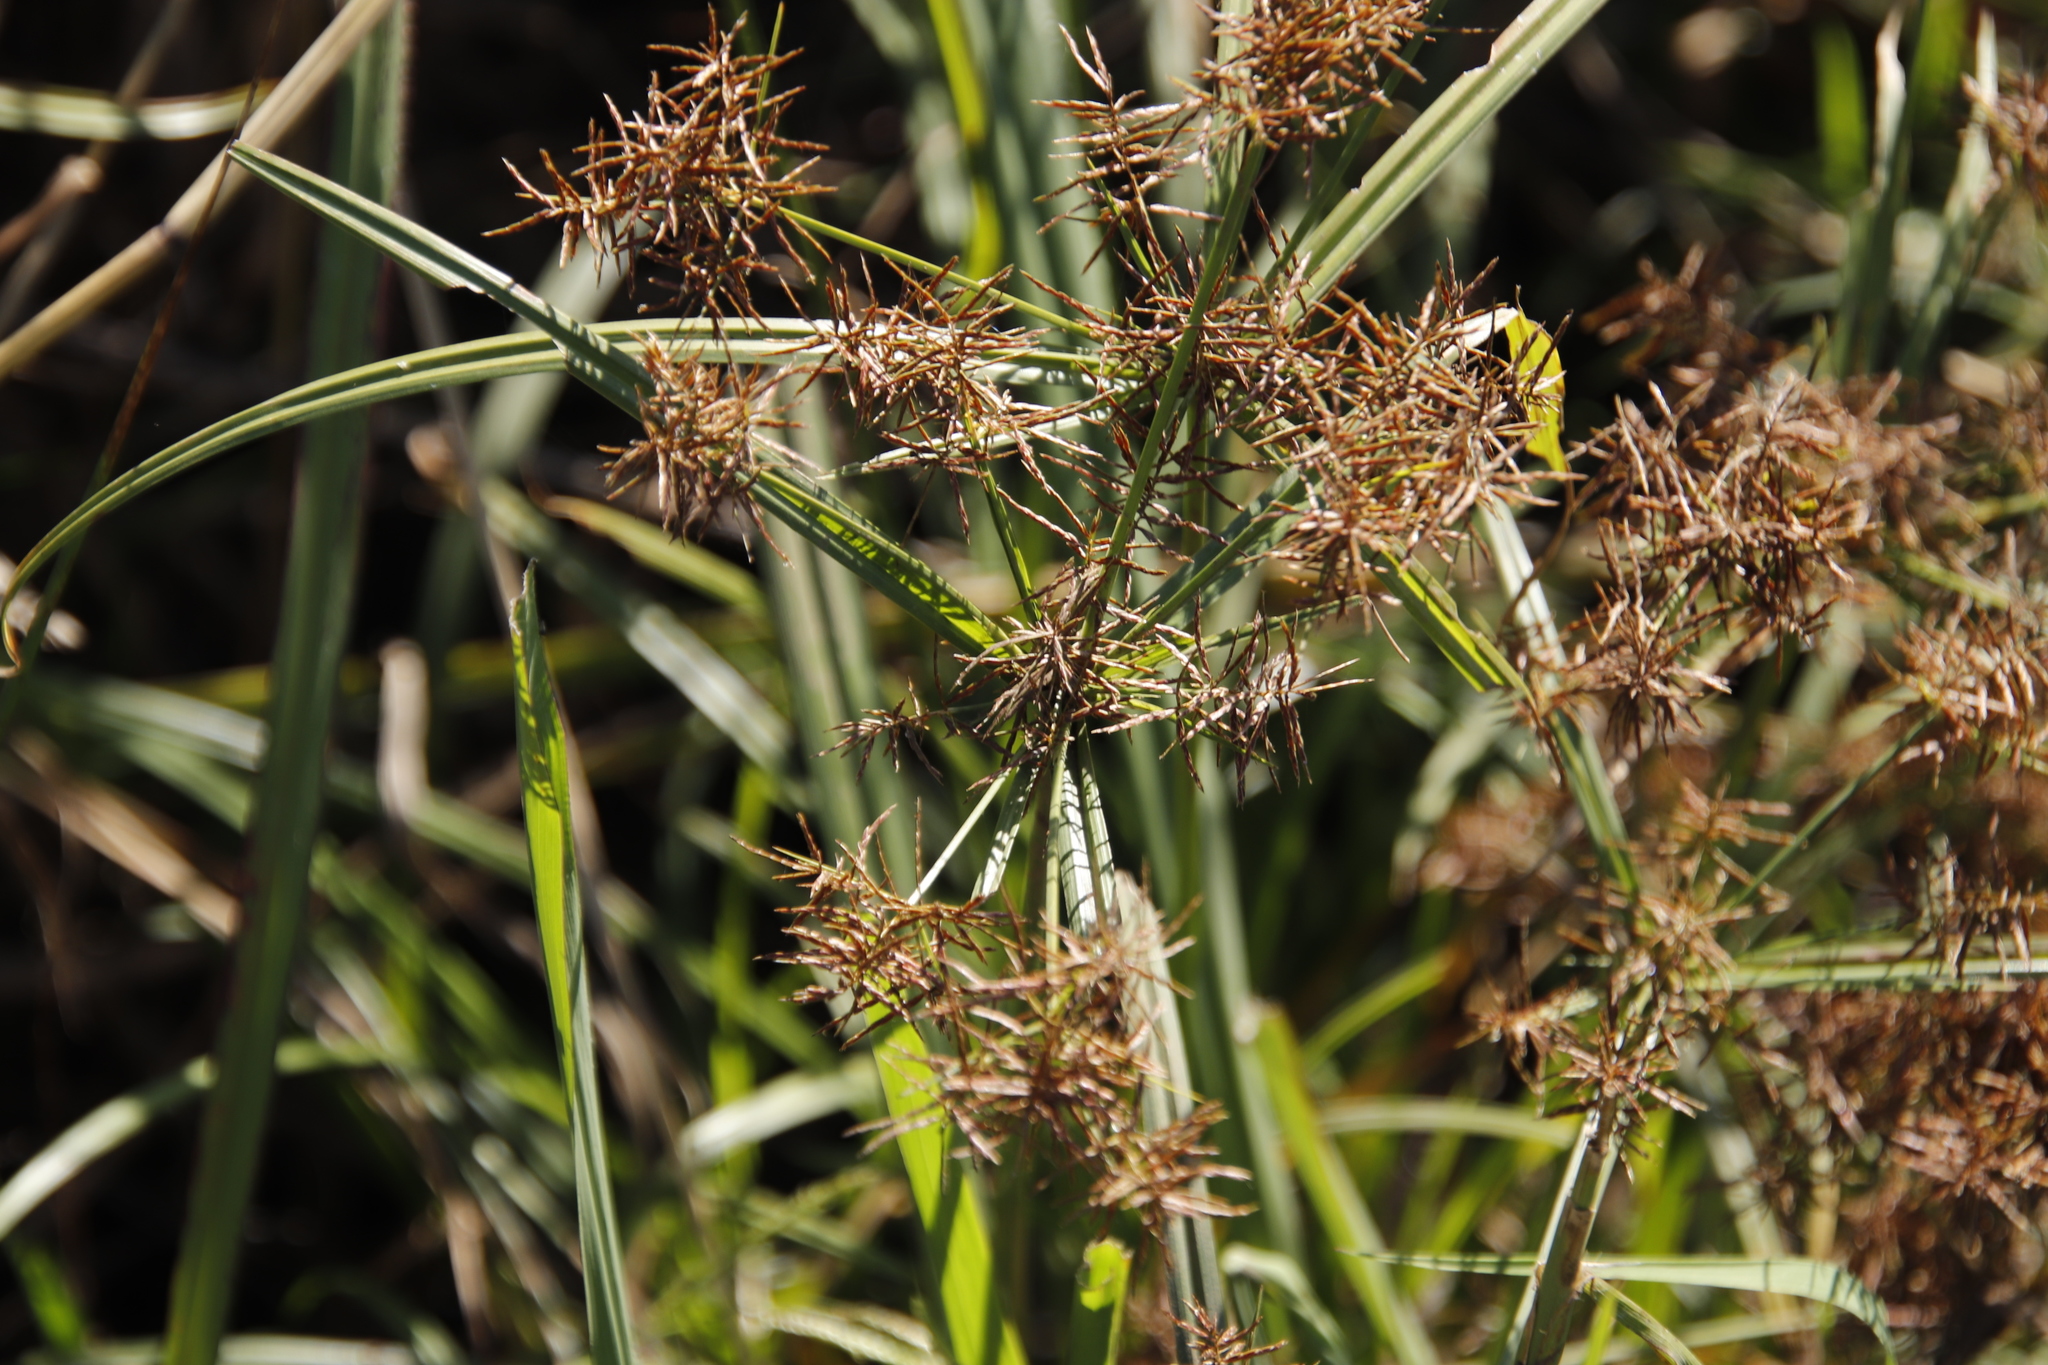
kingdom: Plantae
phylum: Tracheophyta
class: Liliopsida
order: Poales
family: Cyperaceae
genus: Cyperus
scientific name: Cyperus distans
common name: Slender cyperus
